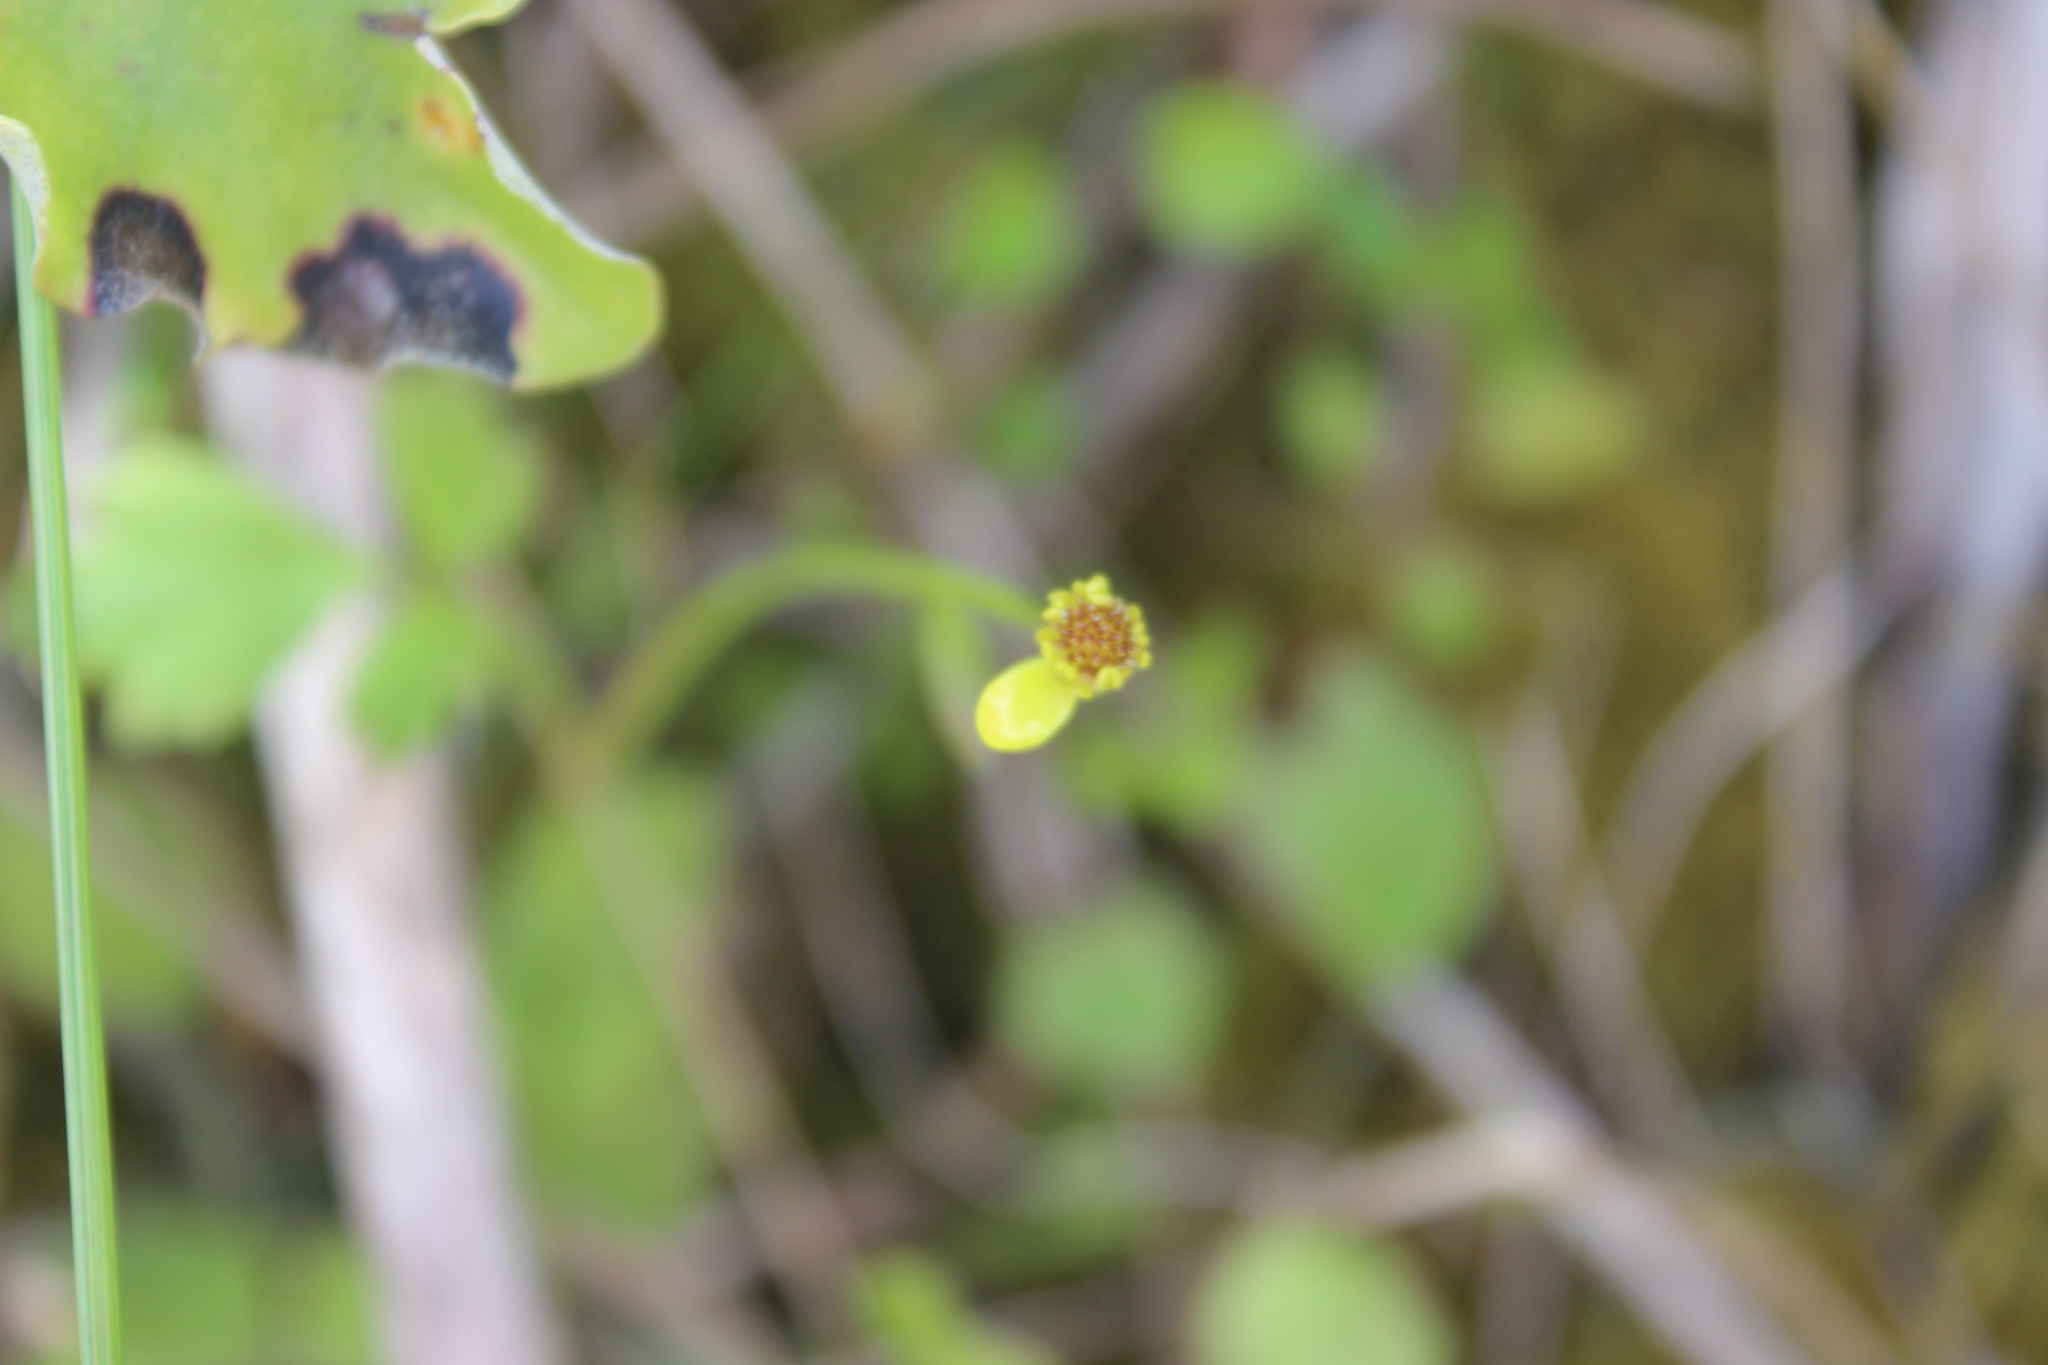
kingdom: Plantae
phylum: Tracheophyta
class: Magnoliopsida
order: Ranunculales
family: Ranunculaceae
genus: Ranunculus
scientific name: Ranunculus reflexus
